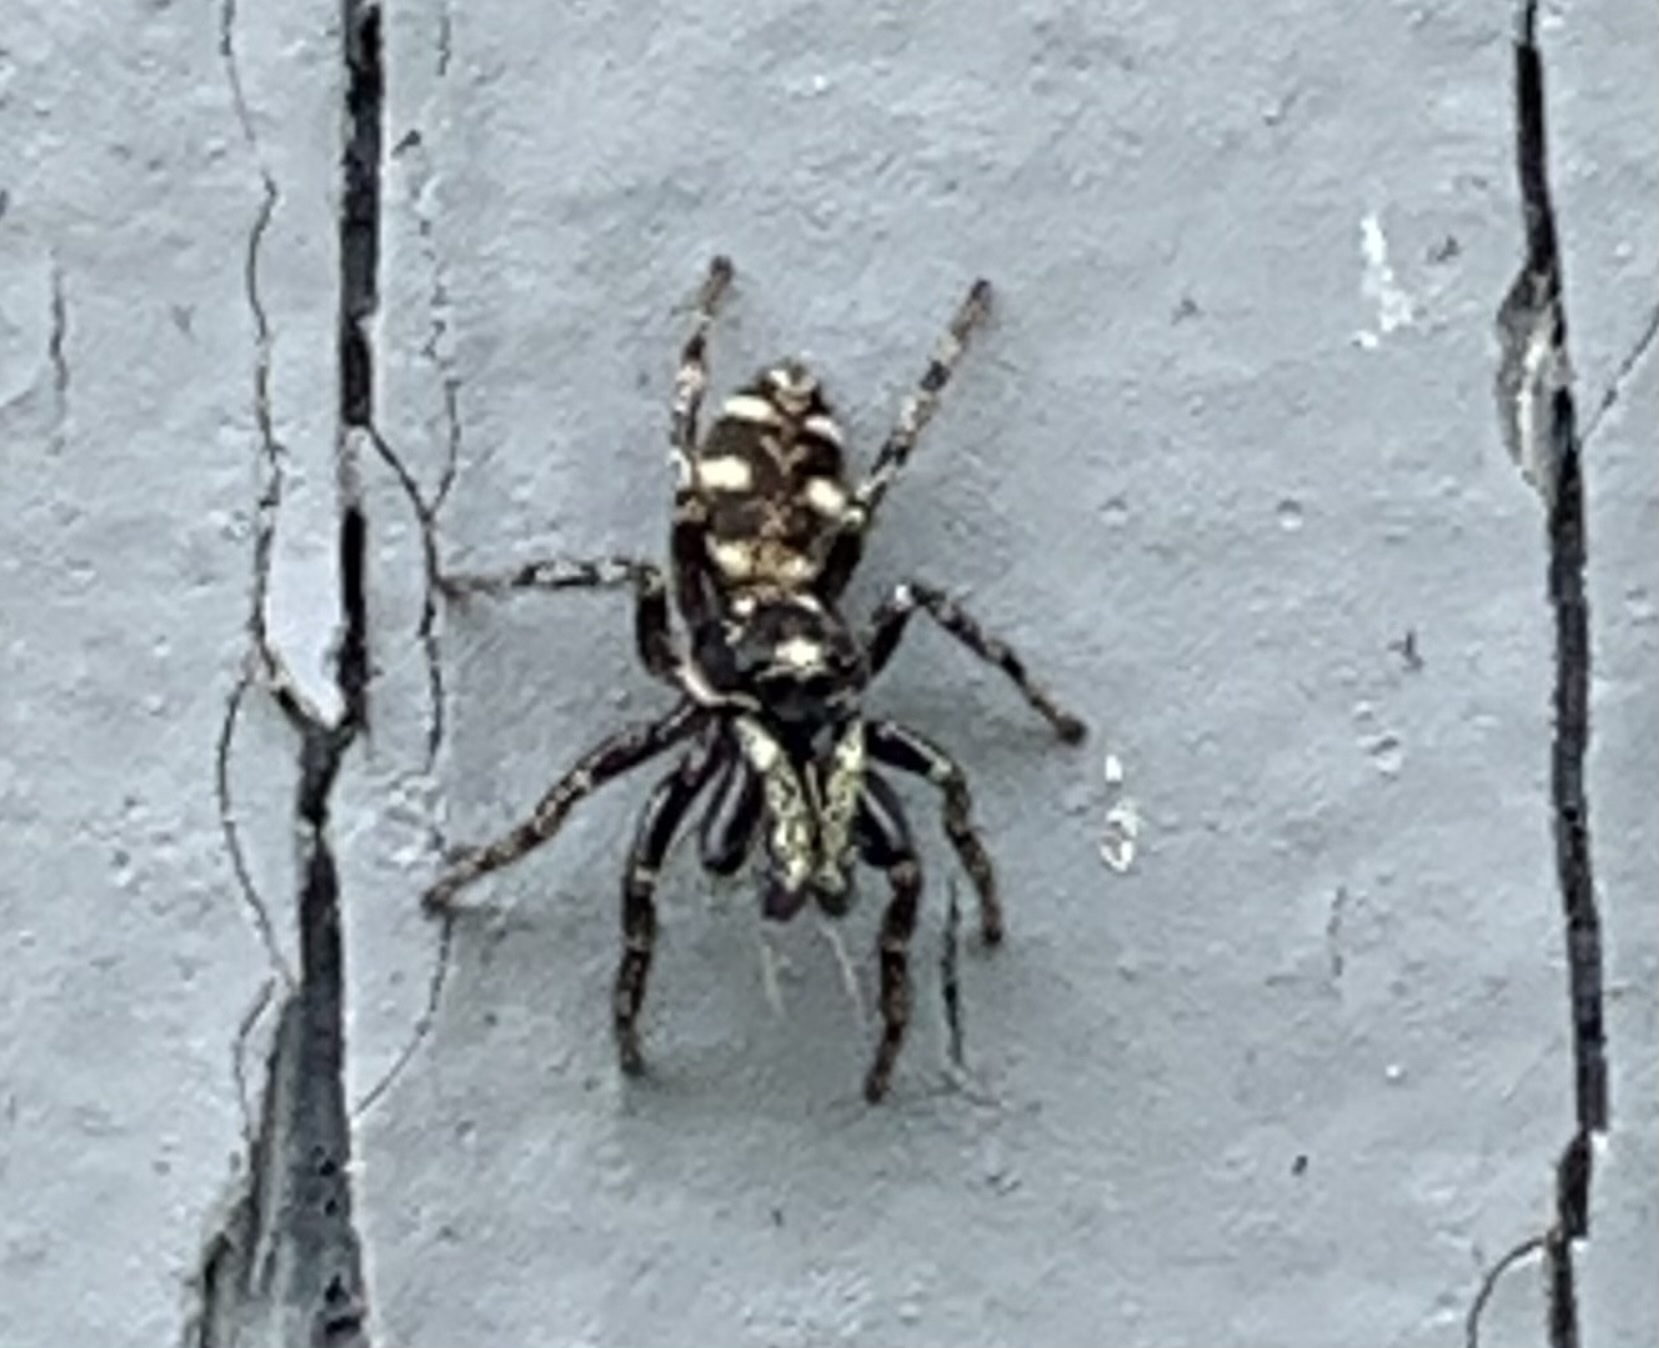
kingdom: Animalia
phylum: Arthropoda
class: Arachnida
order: Araneae
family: Salticidae
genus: Salticus
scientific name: Salticus scenicus
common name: Zebra jumper
